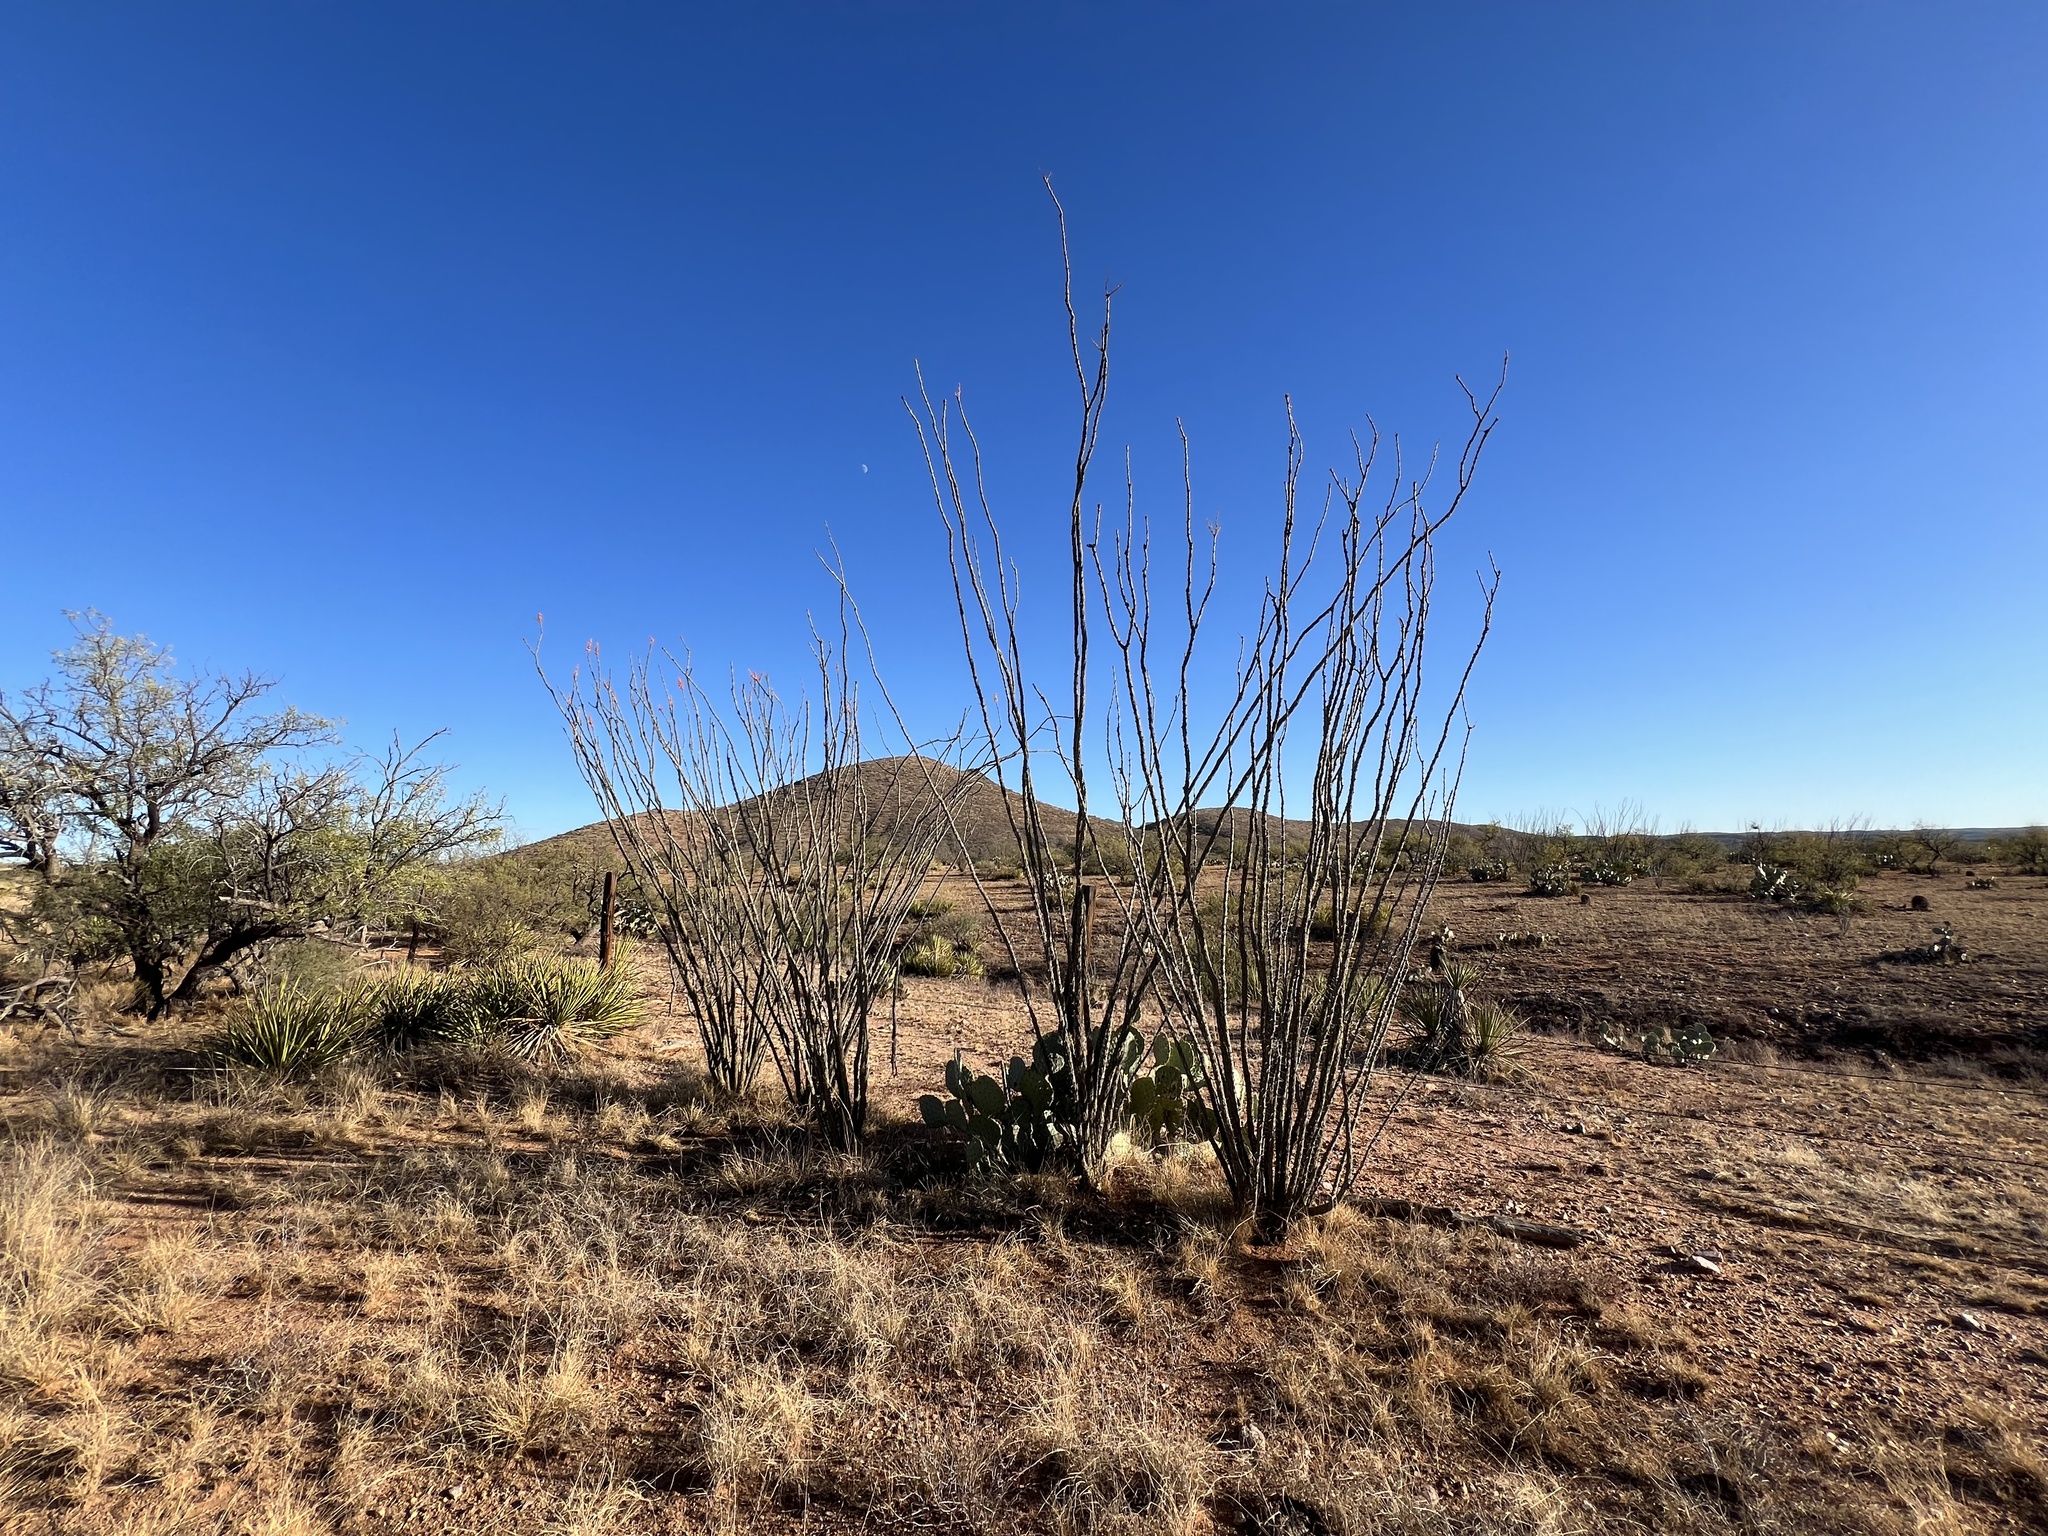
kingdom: Plantae
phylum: Tracheophyta
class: Magnoliopsida
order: Ericales
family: Fouquieriaceae
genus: Fouquieria
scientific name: Fouquieria splendens
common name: Vine-cactus
